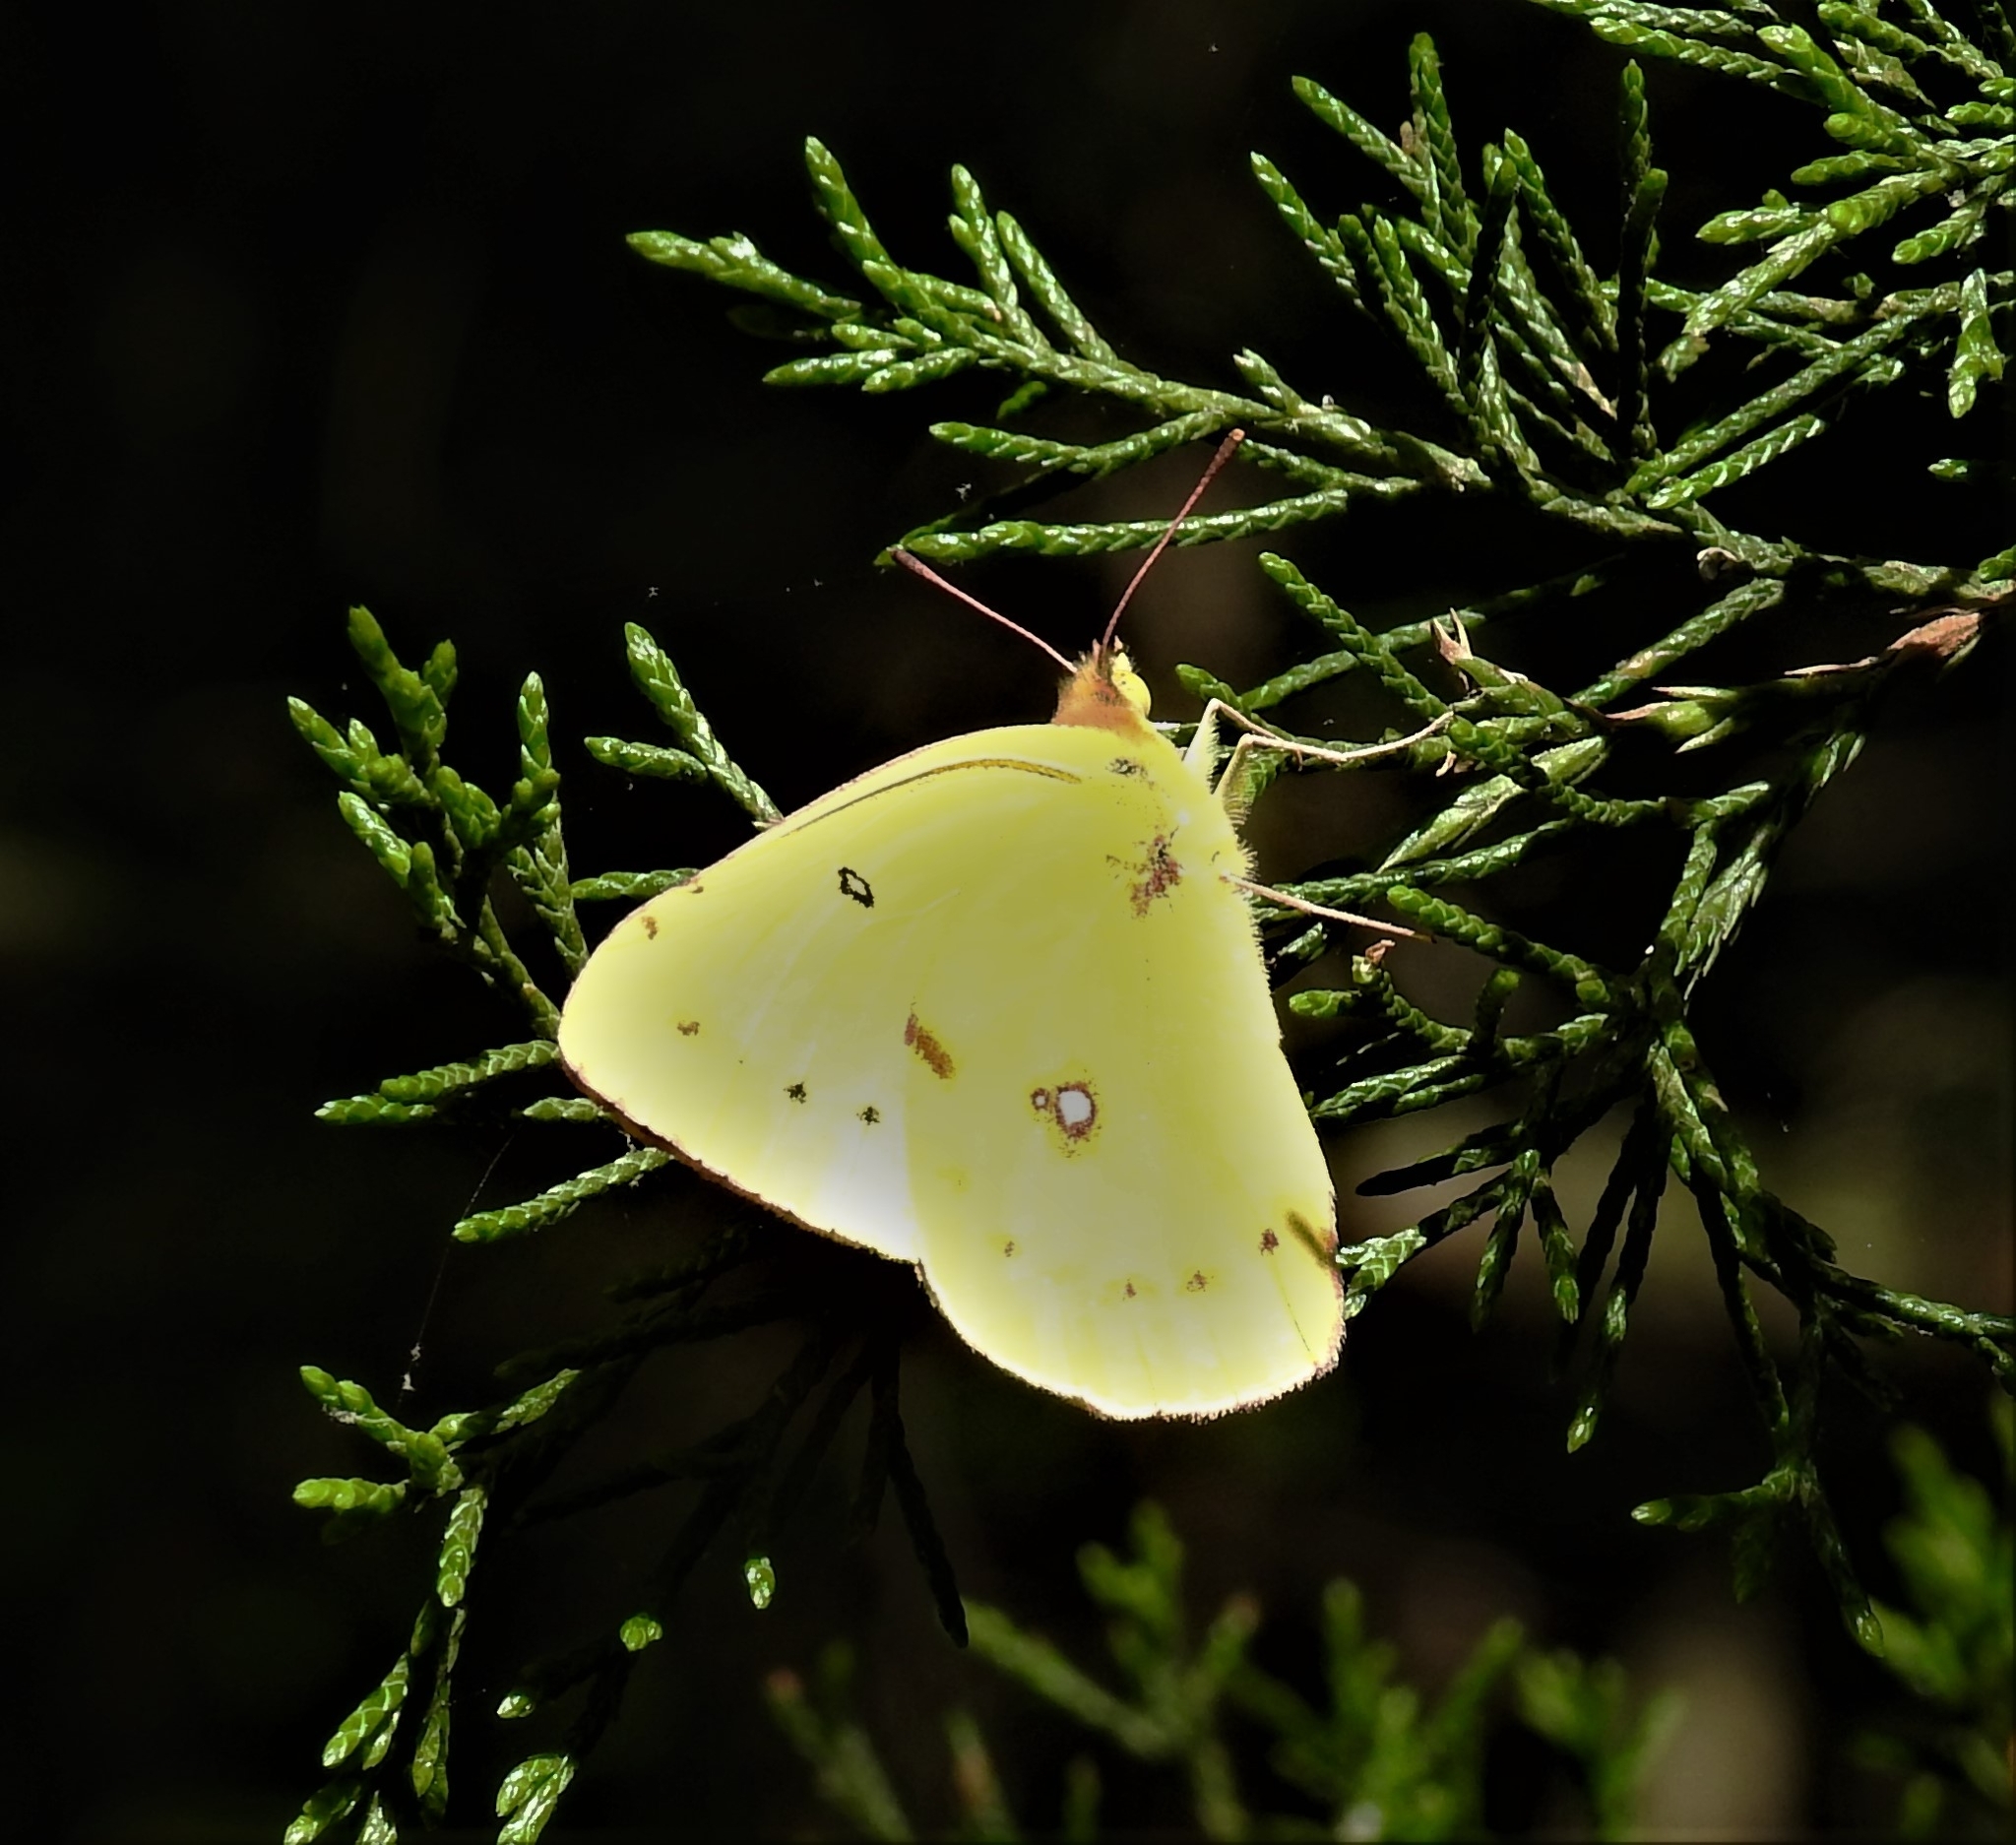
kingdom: Animalia
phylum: Arthropoda
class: Insecta
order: Lepidoptera
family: Pieridae
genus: Colias
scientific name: Colias eurytheme
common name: Alfalfa butterfly
